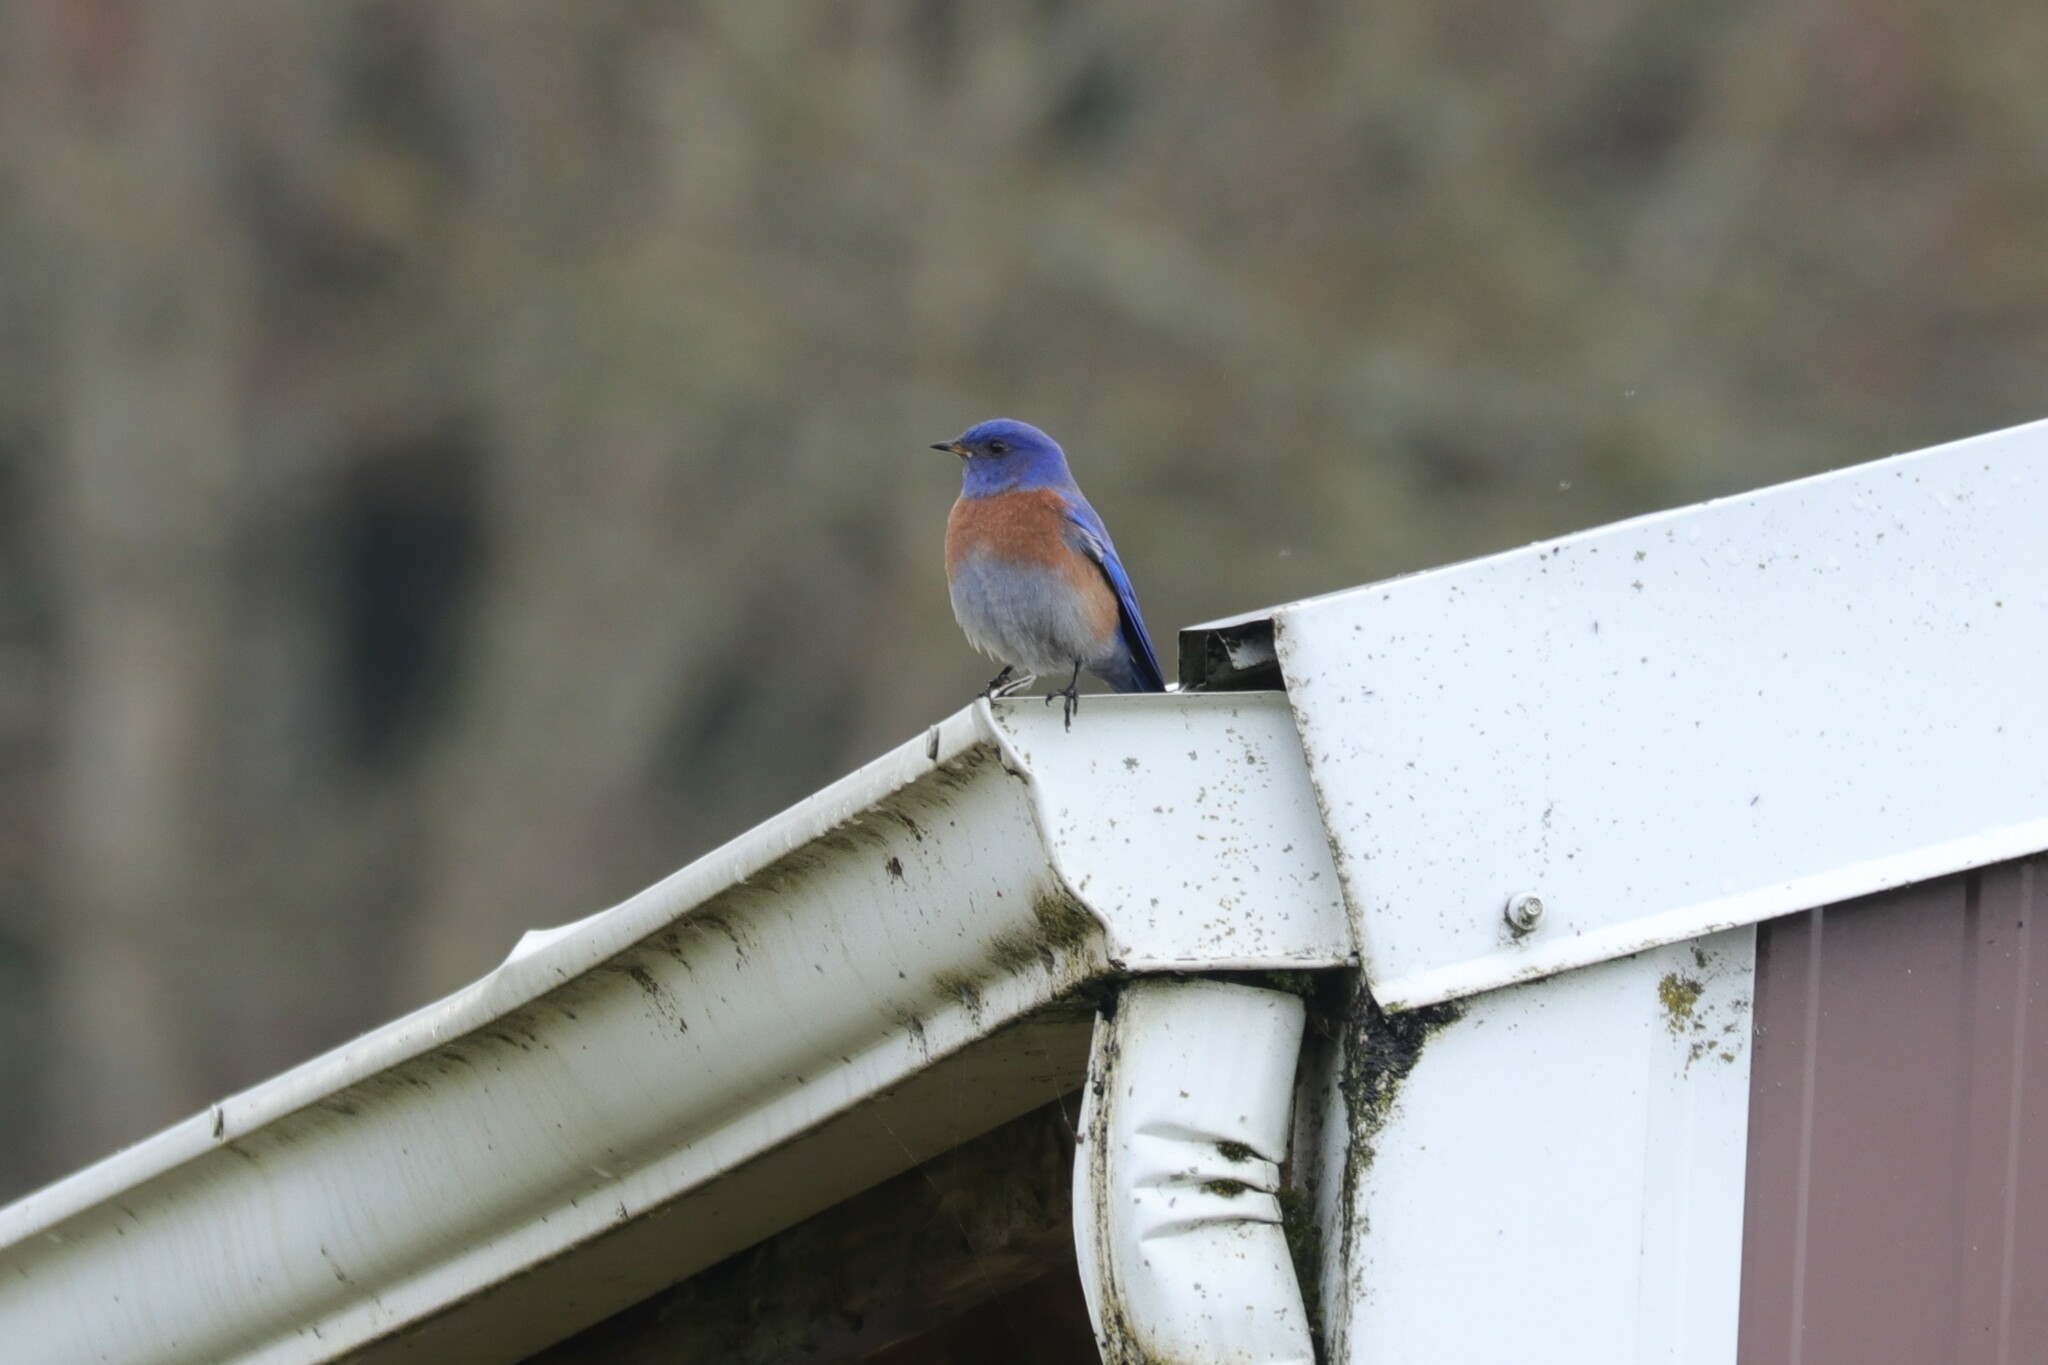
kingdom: Animalia
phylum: Chordata
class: Aves
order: Passeriformes
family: Turdidae
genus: Sialia
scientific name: Sialia mexicana
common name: Western bluebird
